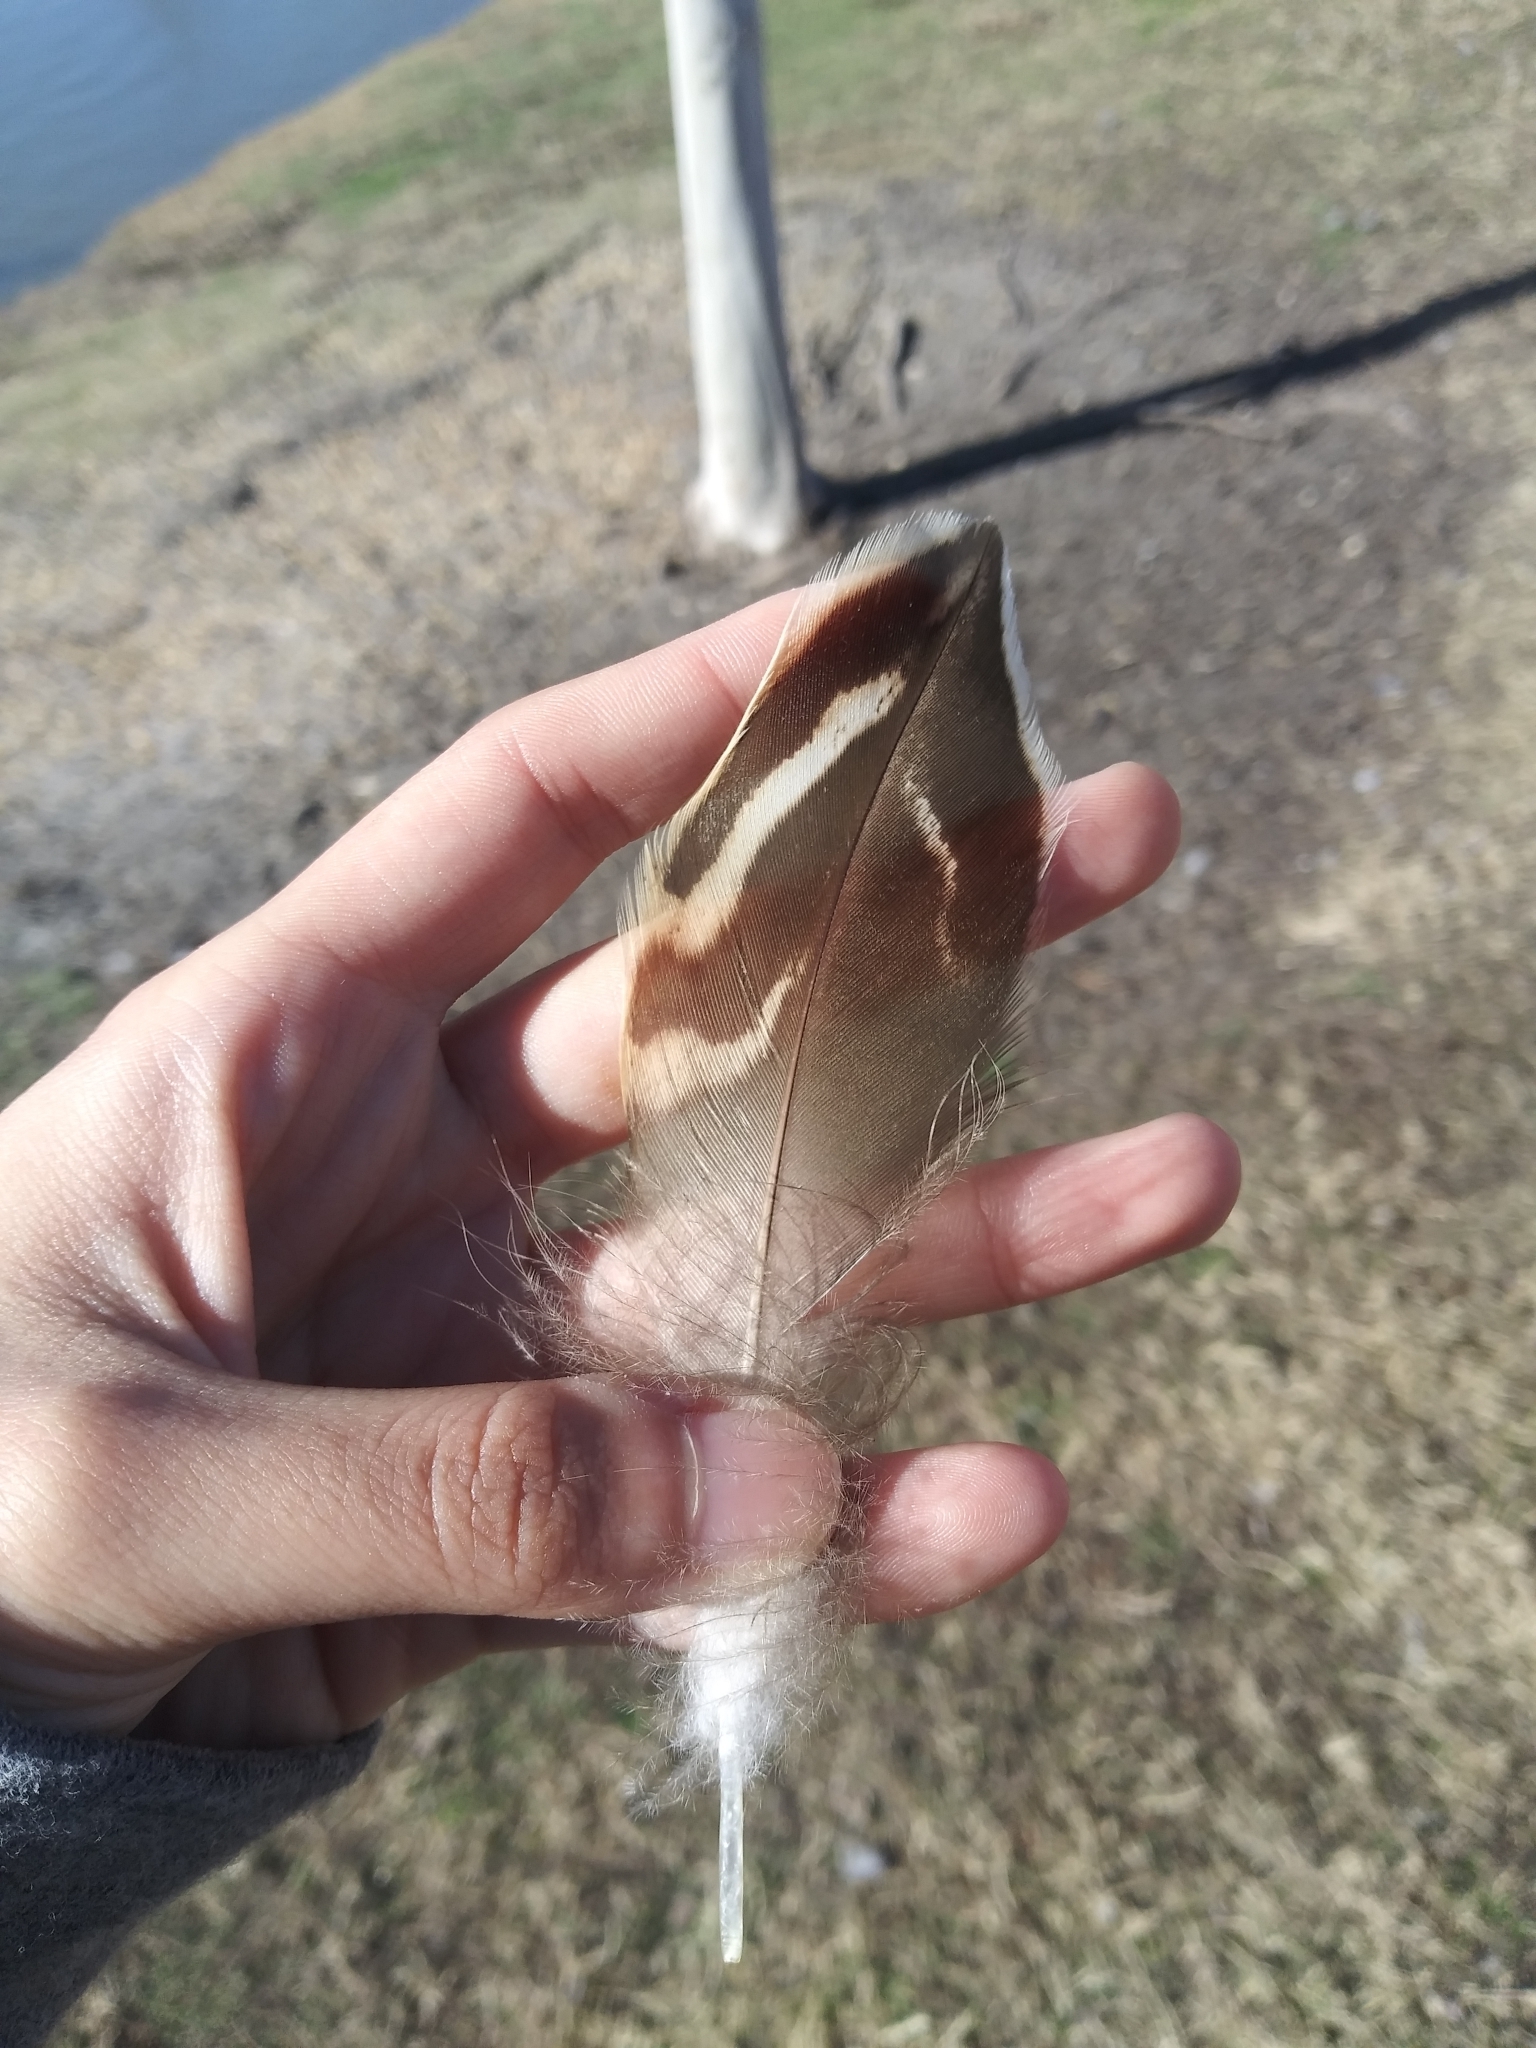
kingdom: Animalia
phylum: Chordata
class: Aves
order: Anseriformes
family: Anatidae
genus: Anas
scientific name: Anas platyrhynchos
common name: Mallard
